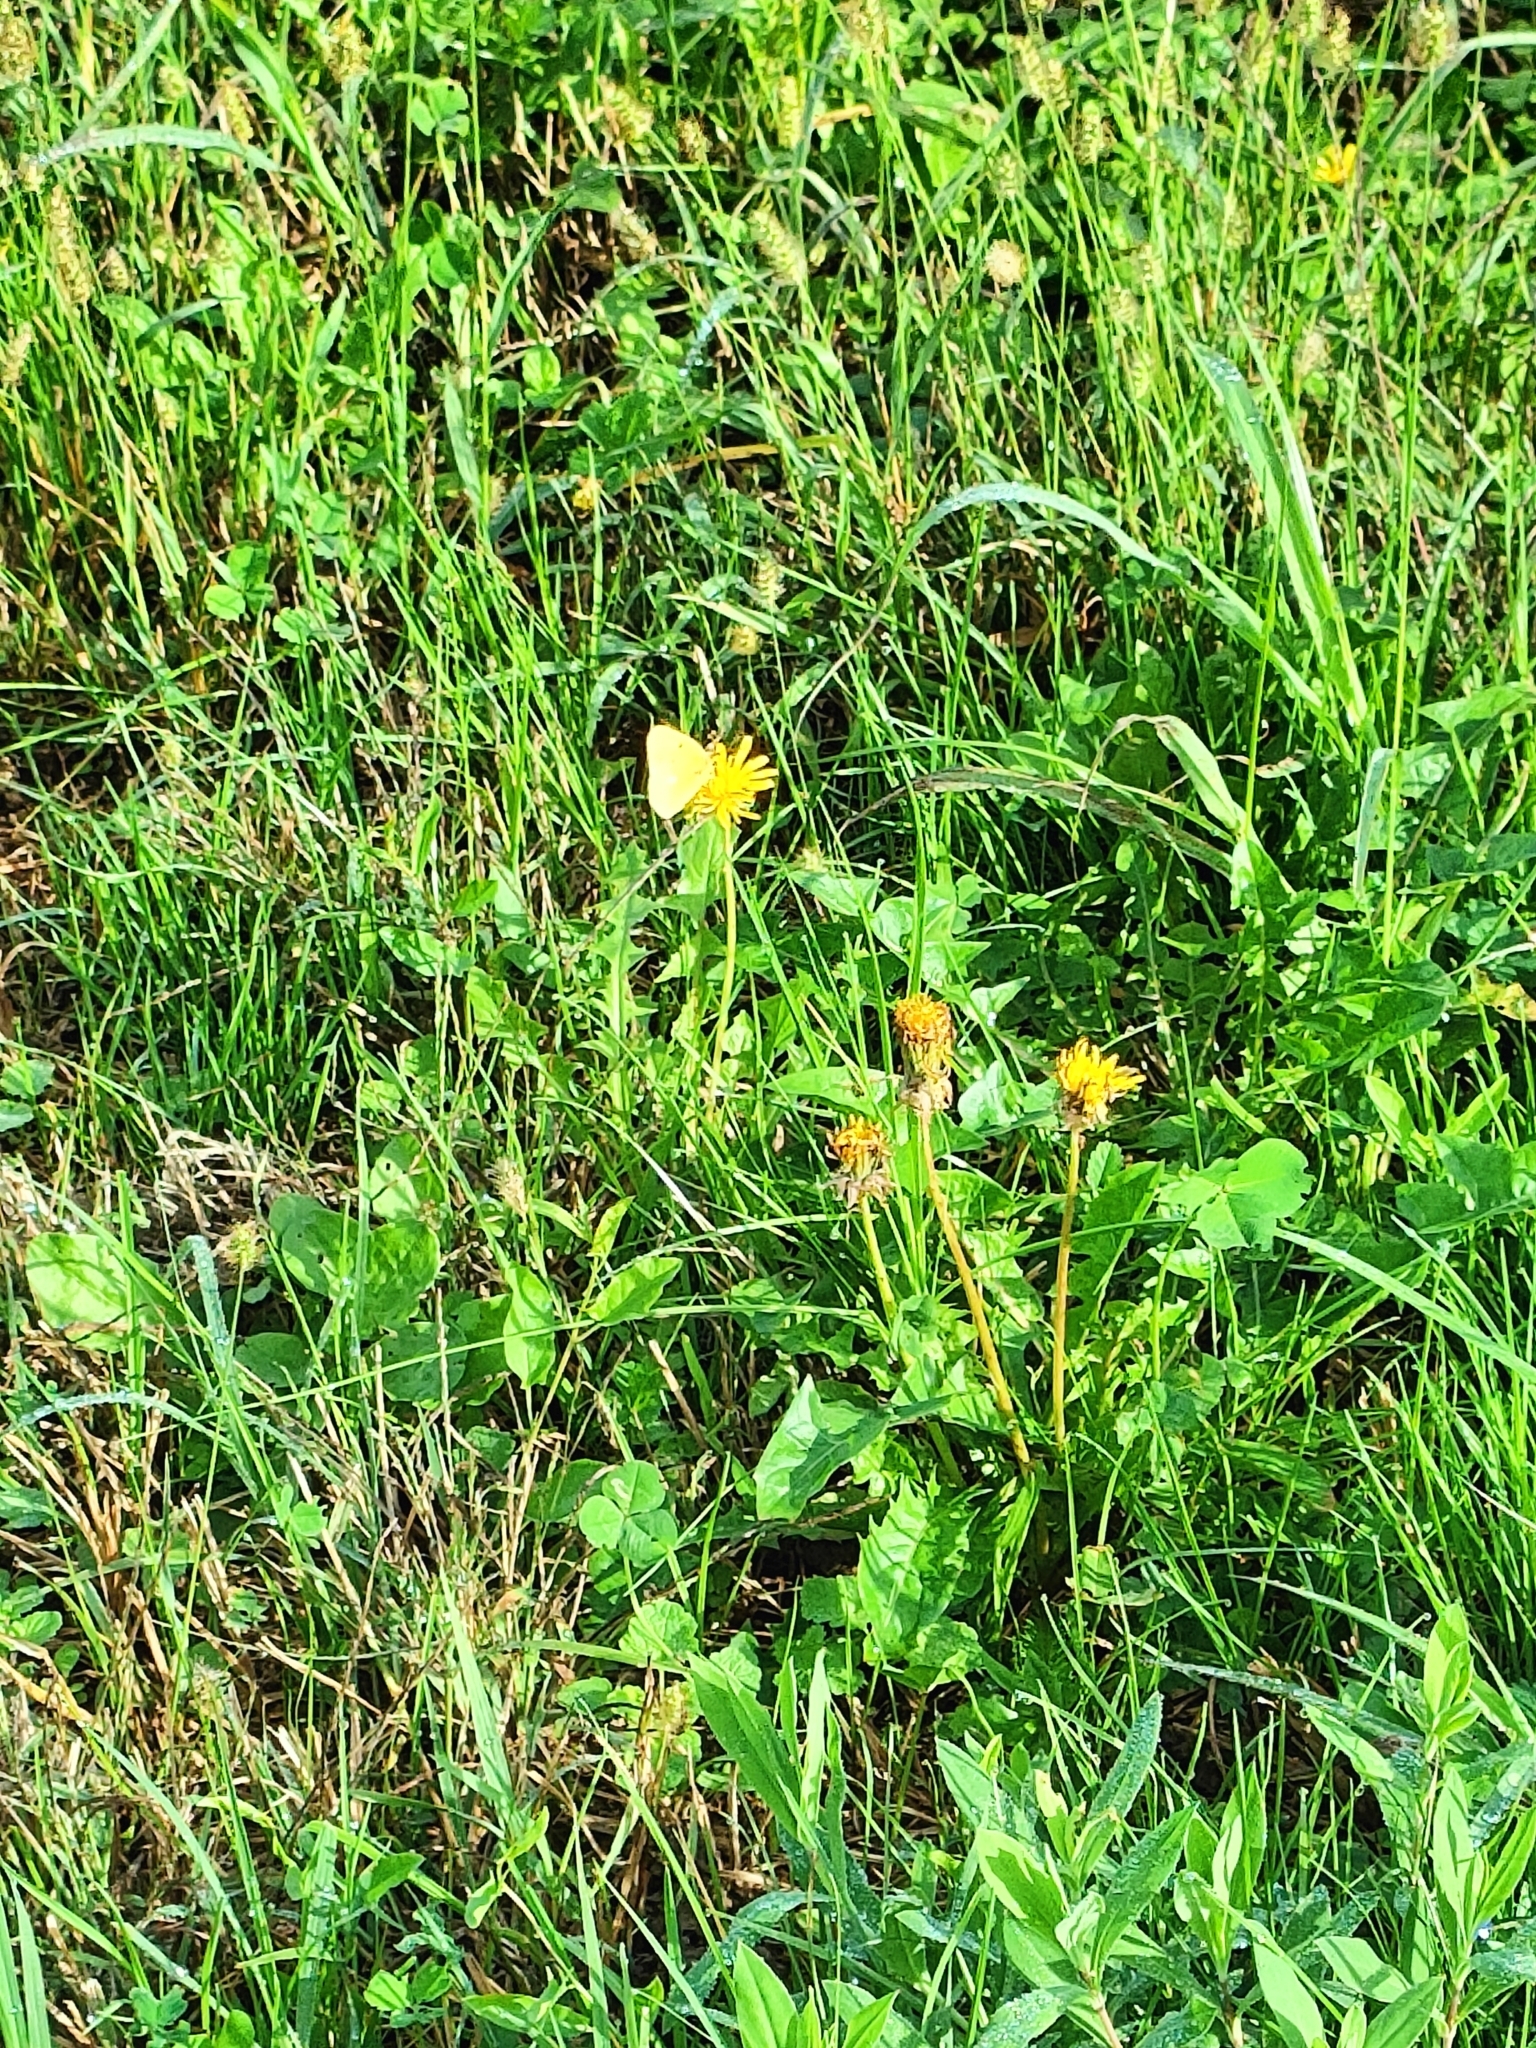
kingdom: Animalia
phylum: Arthropoda
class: Insecta
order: Lepidoptera
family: Pieridae
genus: Colias
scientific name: Colias croceus
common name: Clouded yellow
